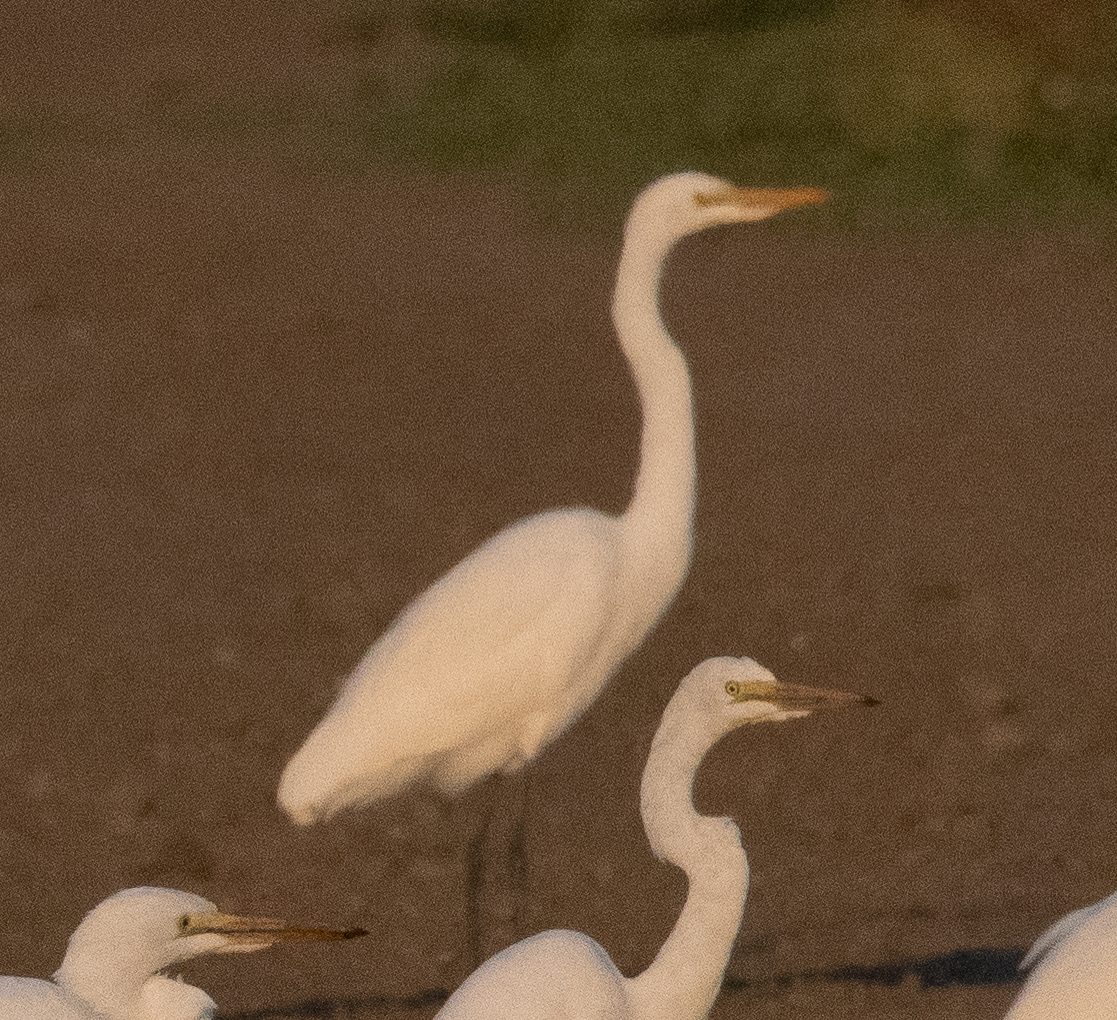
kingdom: Animalia
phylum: Chordata
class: Aves
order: Pelecaniformes
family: Ardeidae
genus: Ardea
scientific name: Ardea alba
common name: Great egret
